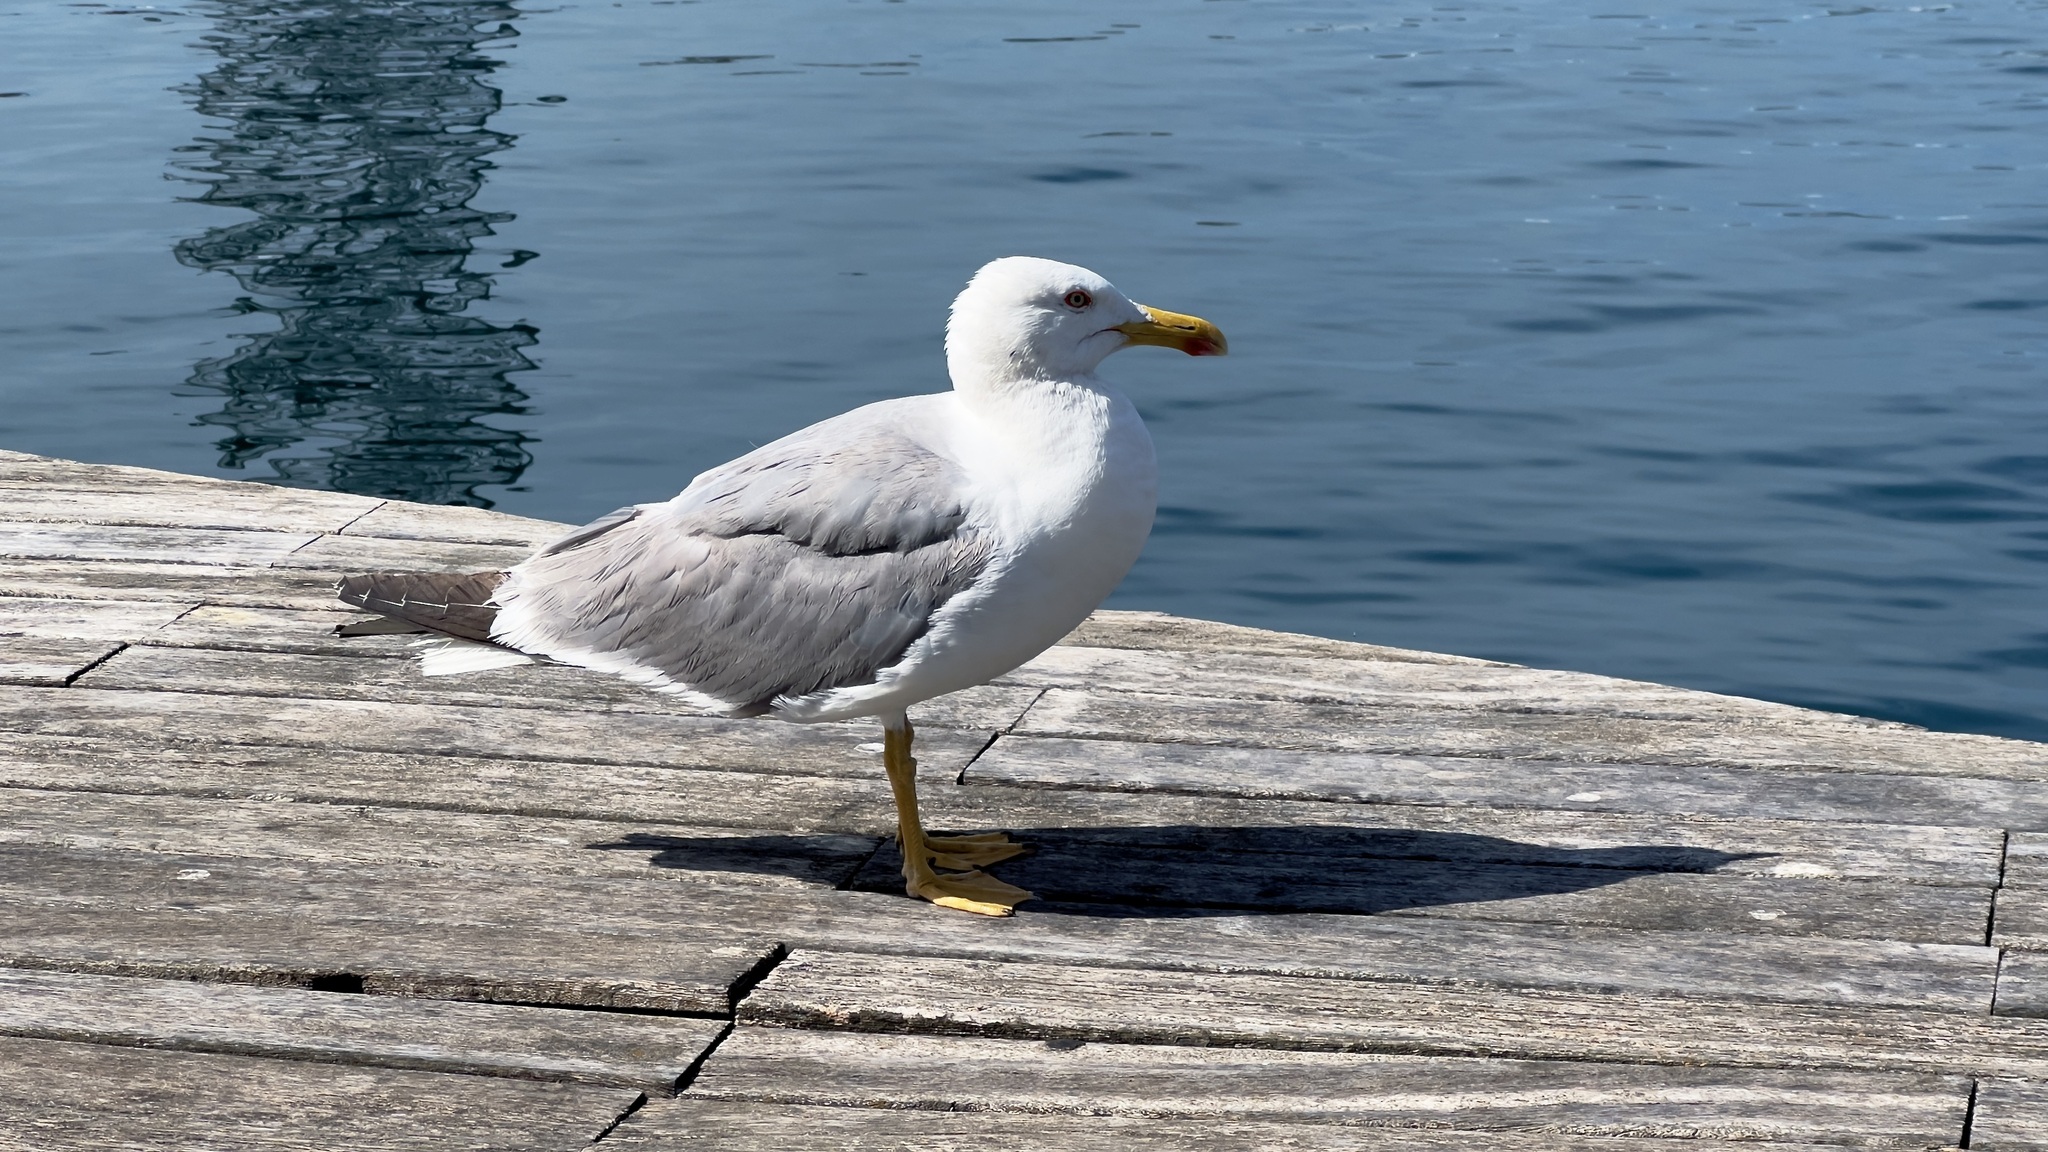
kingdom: Animalia
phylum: Chordata
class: Aves
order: Charadriiformes
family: Laridae
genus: Larus
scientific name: Larus michahellis
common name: Yellow-legged gull
